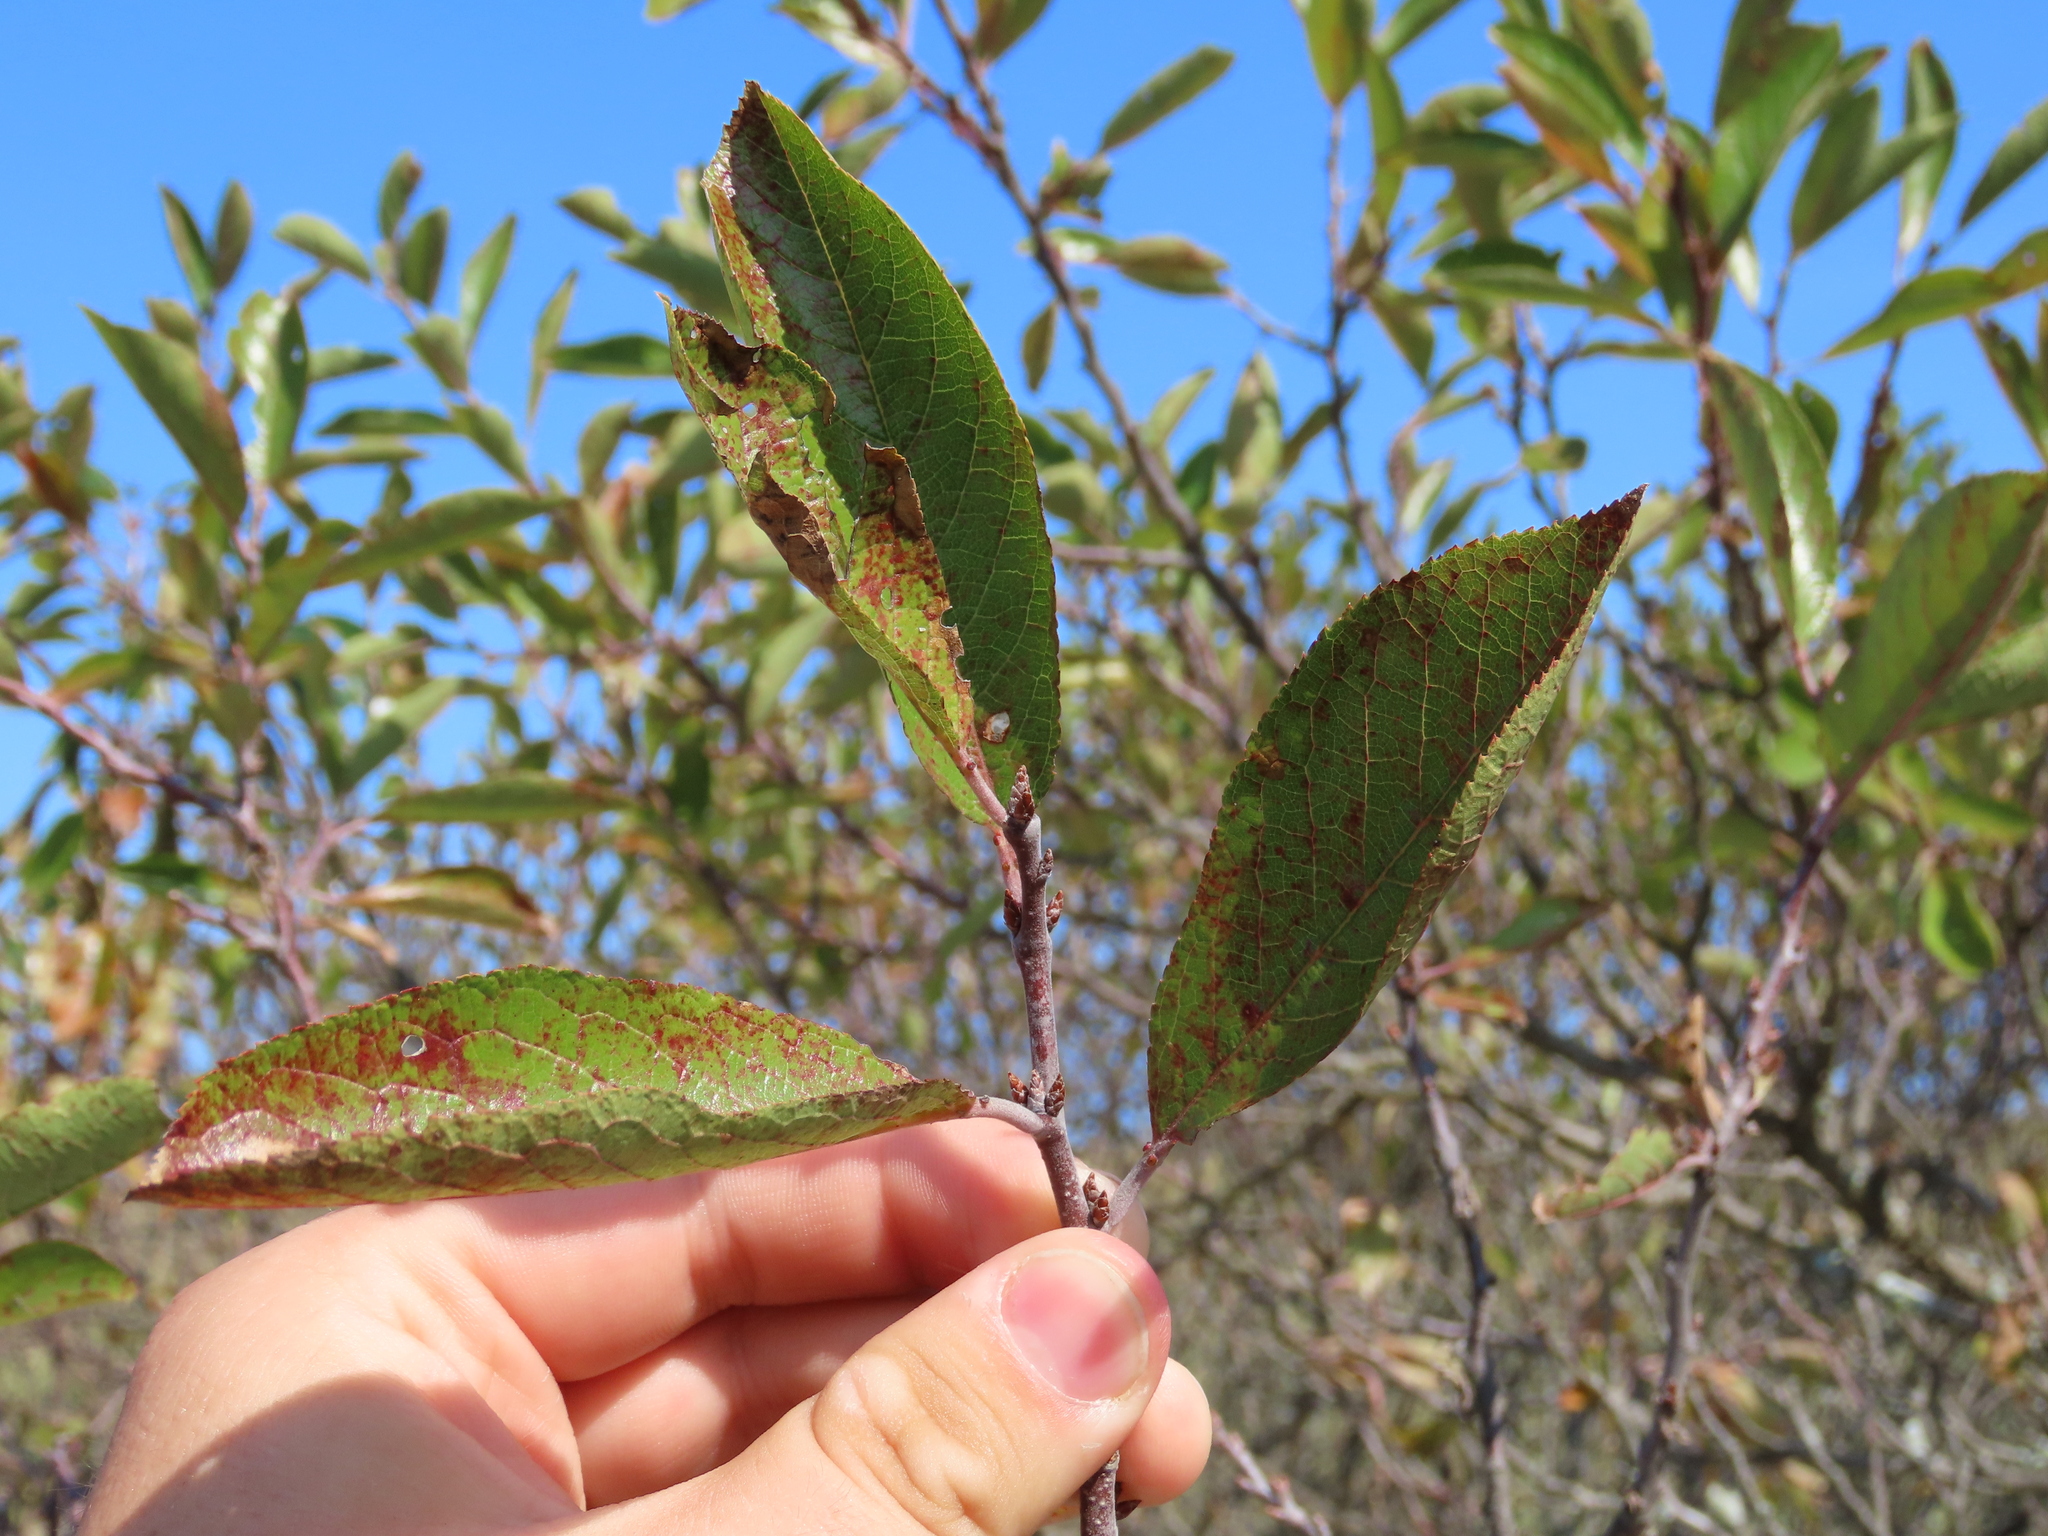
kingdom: Plantae
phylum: Tracheophyta
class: Magnoliopsida
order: Rosales
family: Rosaceae
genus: Prunus
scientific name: Prunus maritima
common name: Beach plum
